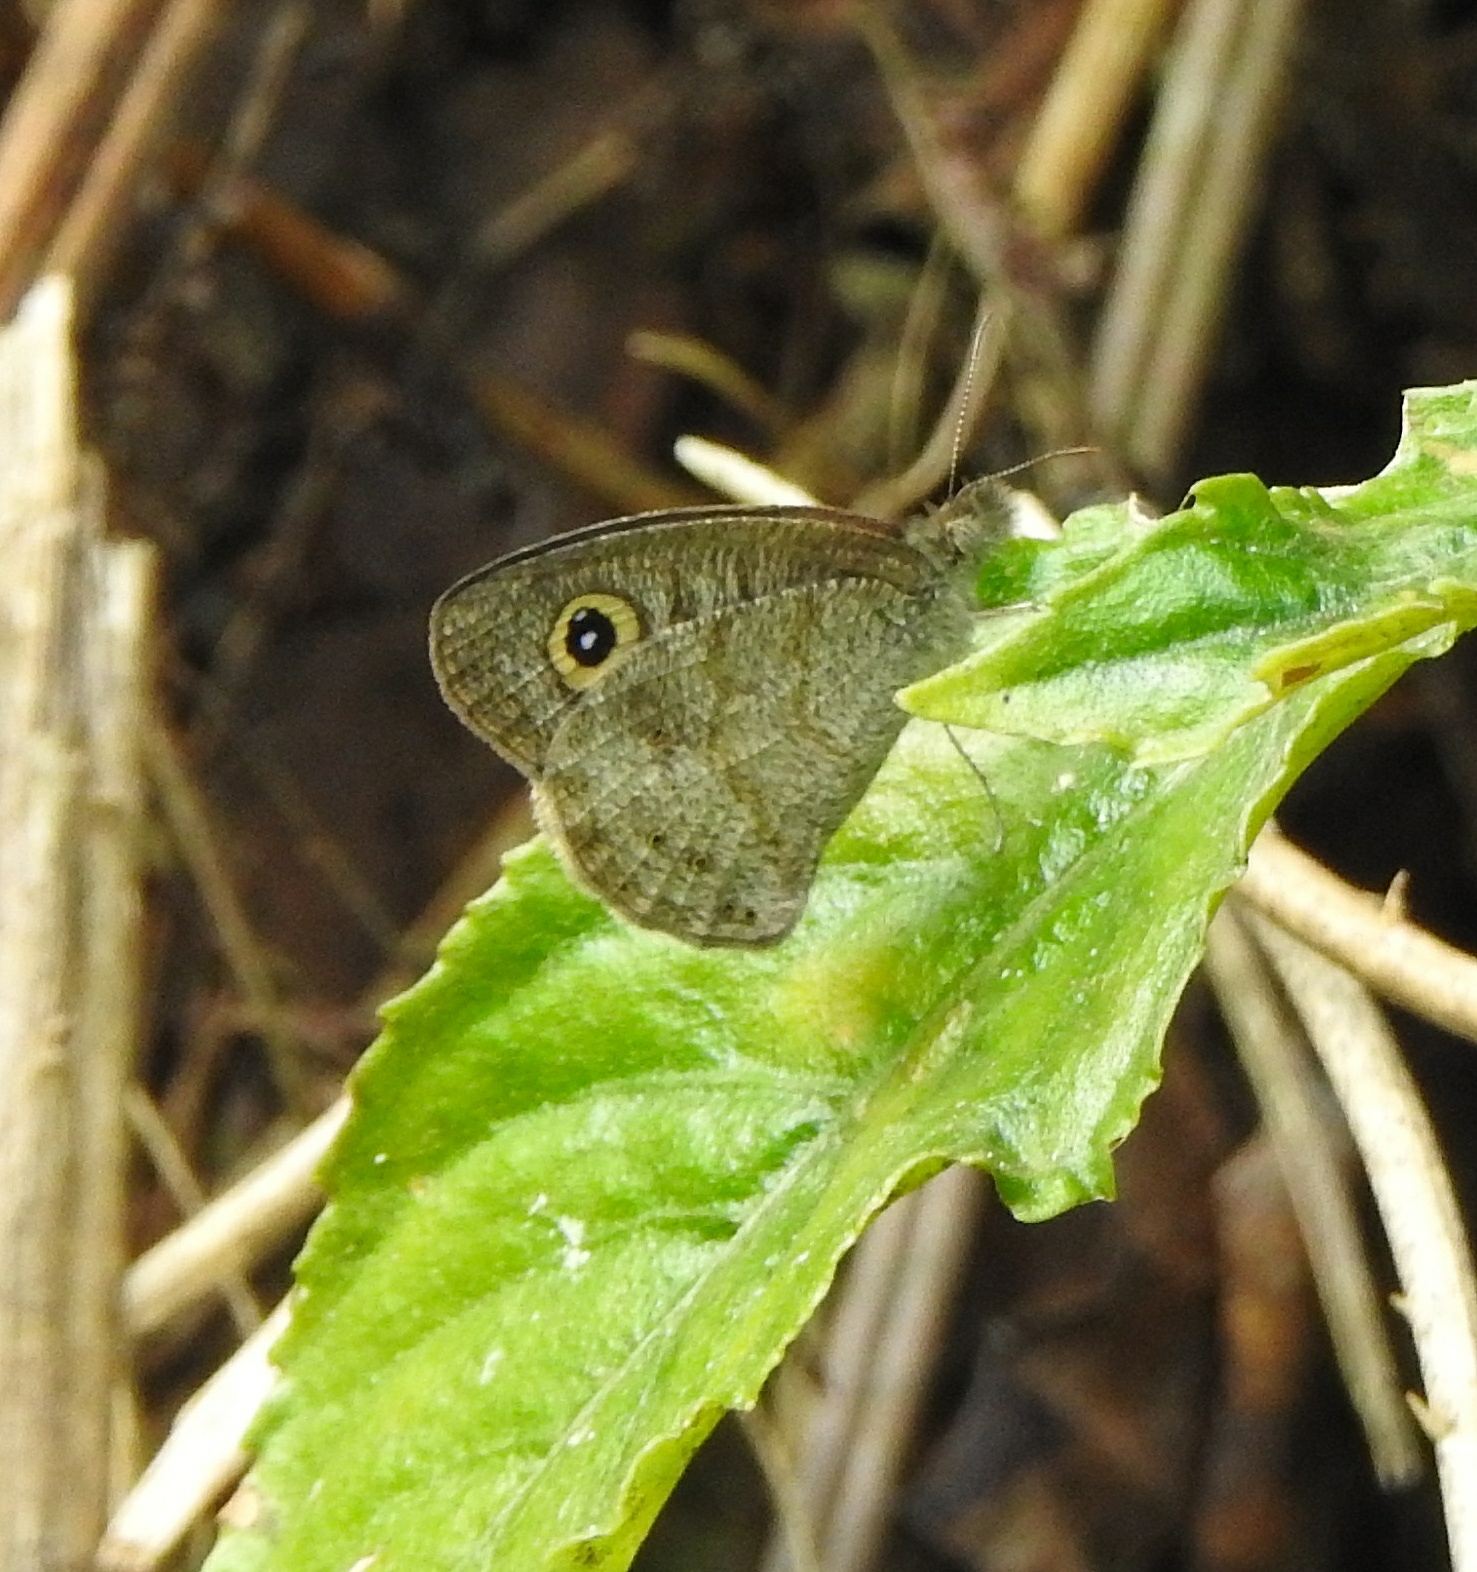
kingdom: Animalia
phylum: Arthropoda
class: Insecta
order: Lepidoptera
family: Nymphalidae
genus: Ypthima
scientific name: Ypthima baldus
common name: Common five-ring
